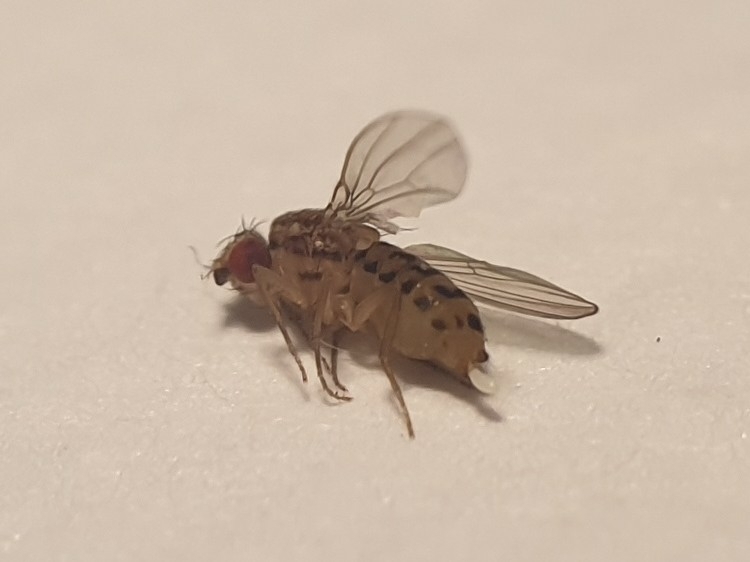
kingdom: Animalia
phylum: Arthropoda
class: Insecta
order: Diptera
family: Drosophilidae
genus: Drosophila
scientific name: Drosophila busckii
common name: Pomace fly
